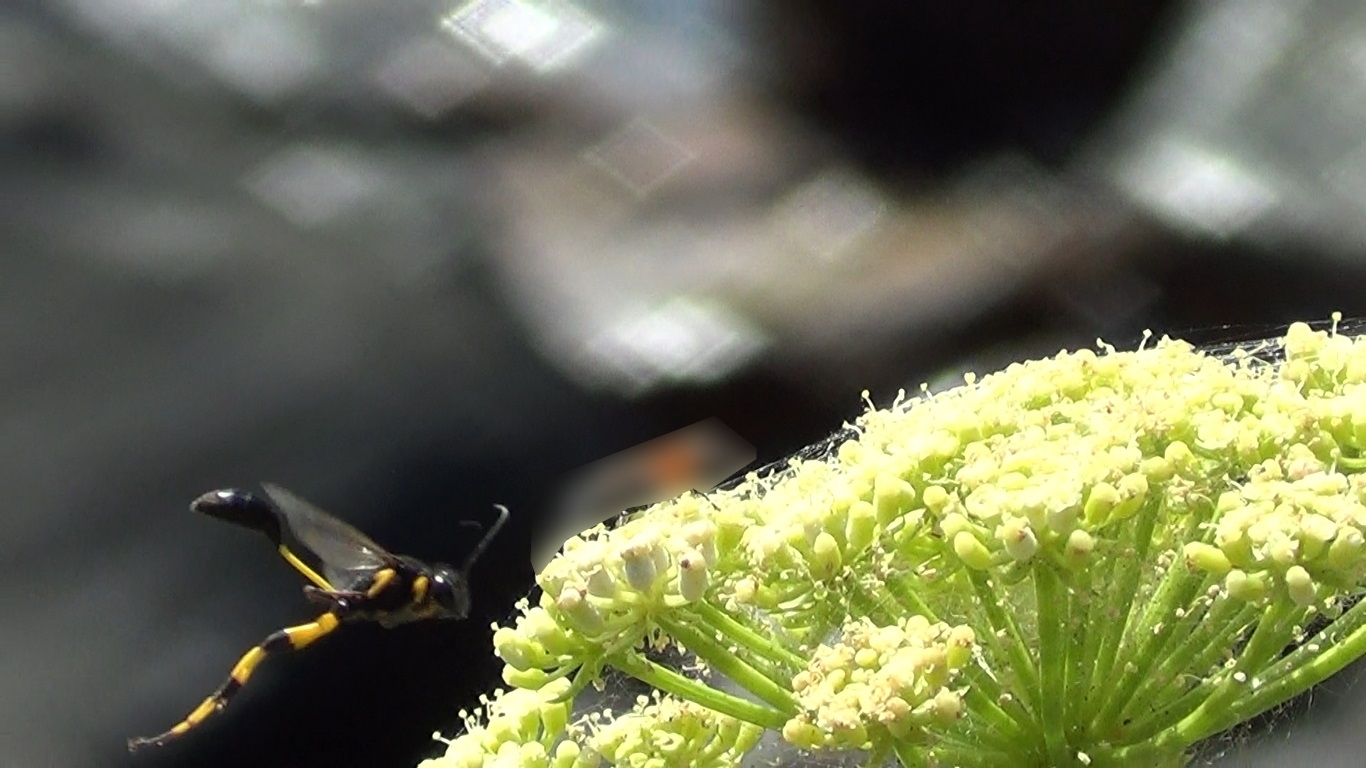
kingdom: Animalia
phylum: Arthropoda
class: Insecta
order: Hymenoptera
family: Sphecidae
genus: Sceliphron
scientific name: Sceliphron spirifex
